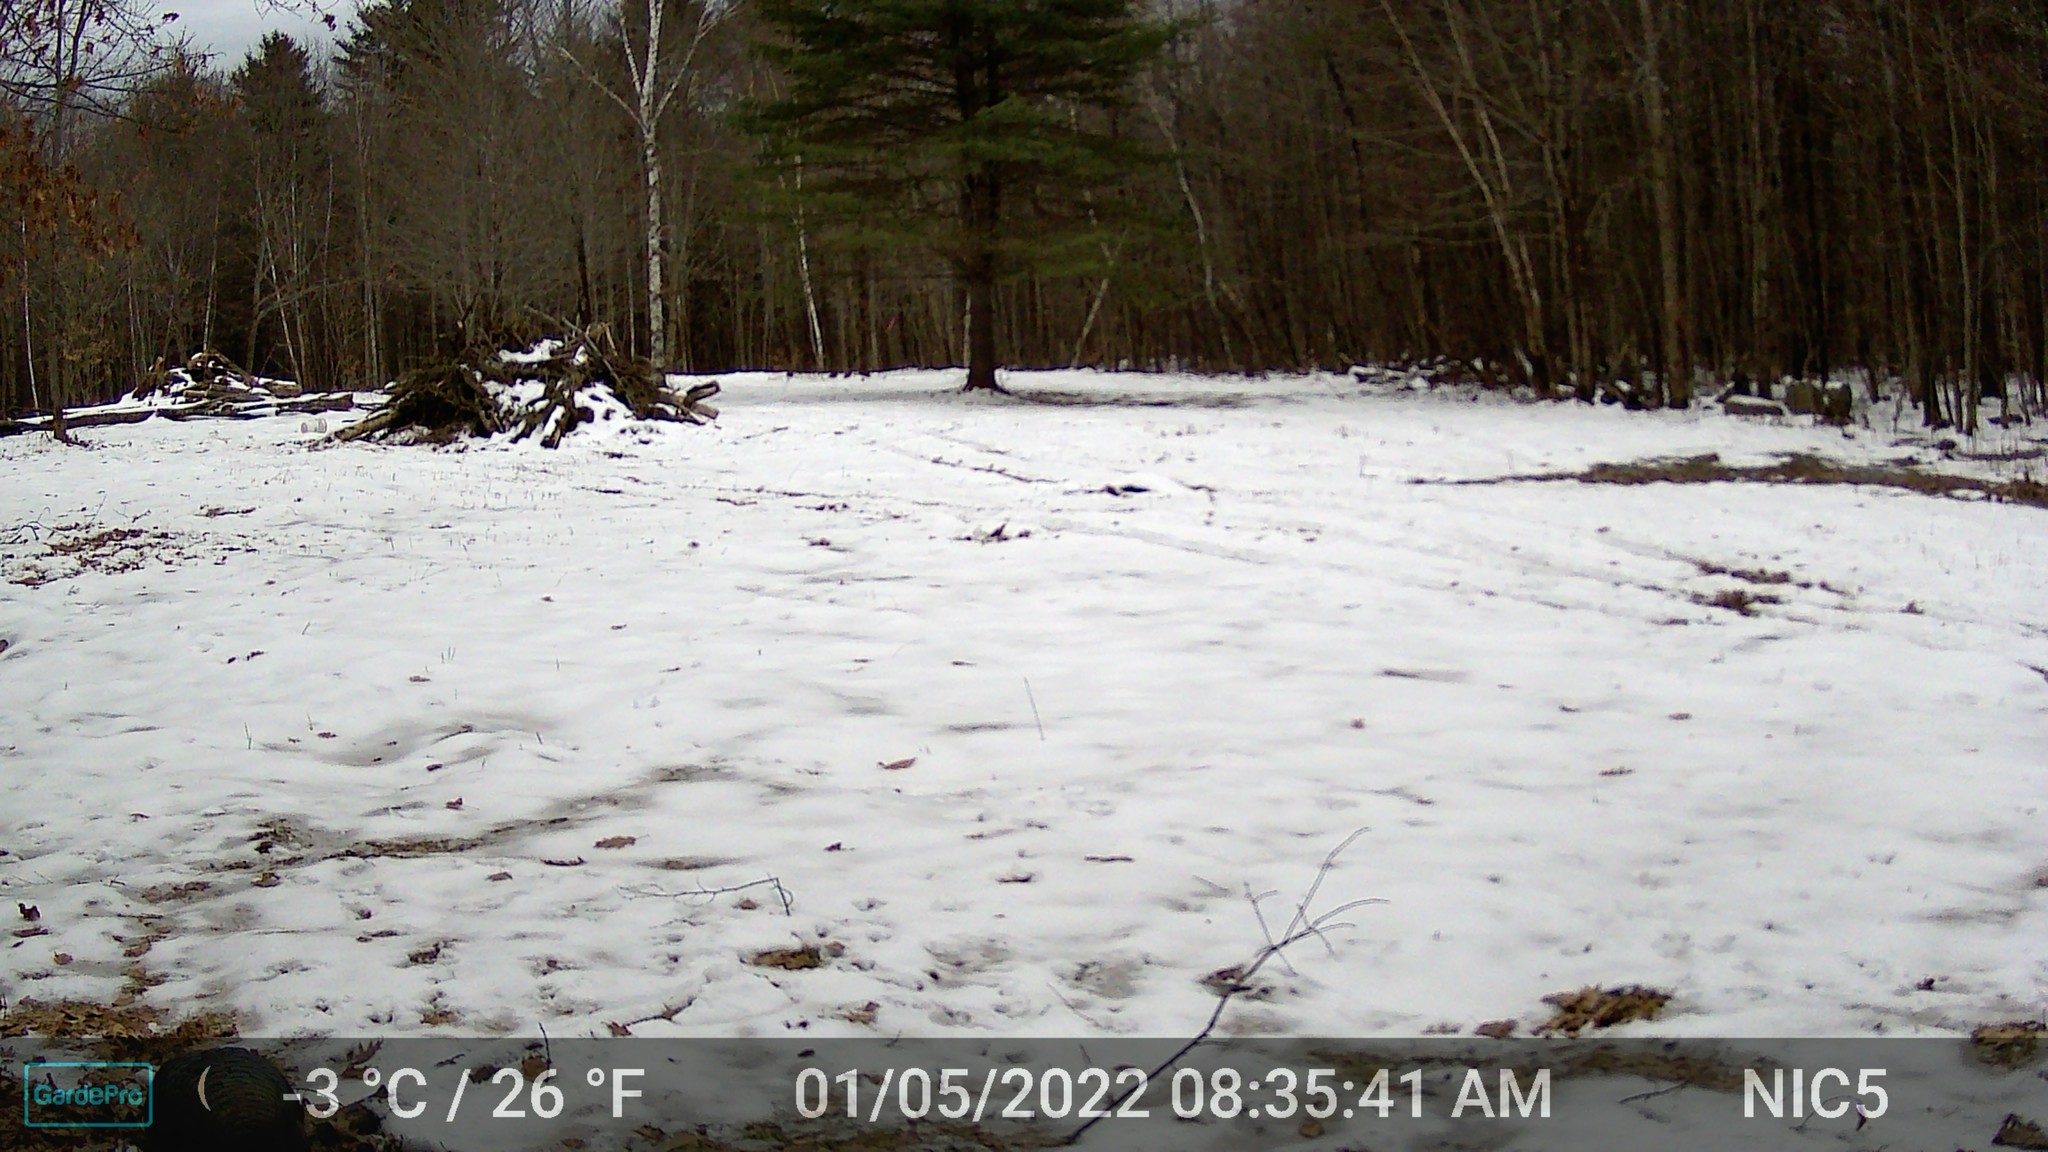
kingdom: Animalia
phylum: Chordata
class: Aves
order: Galliformes
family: Phasianidae
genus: Meleagris
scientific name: Meleagris gallopavo
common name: Wild turkey
